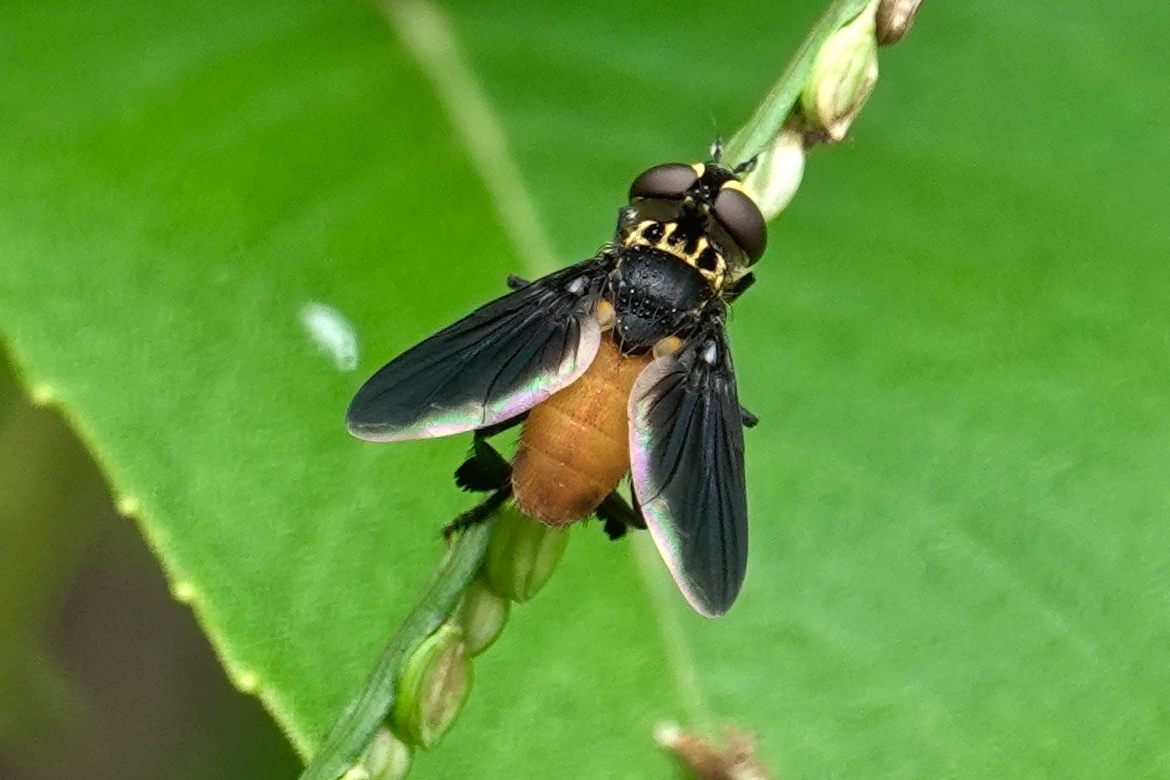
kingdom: Animalia
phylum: Arthropoda
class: Insecta
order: Diptera
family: Tachinidae
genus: Trichopoda
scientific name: Trichopoda pennipes
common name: Tachinid fly
